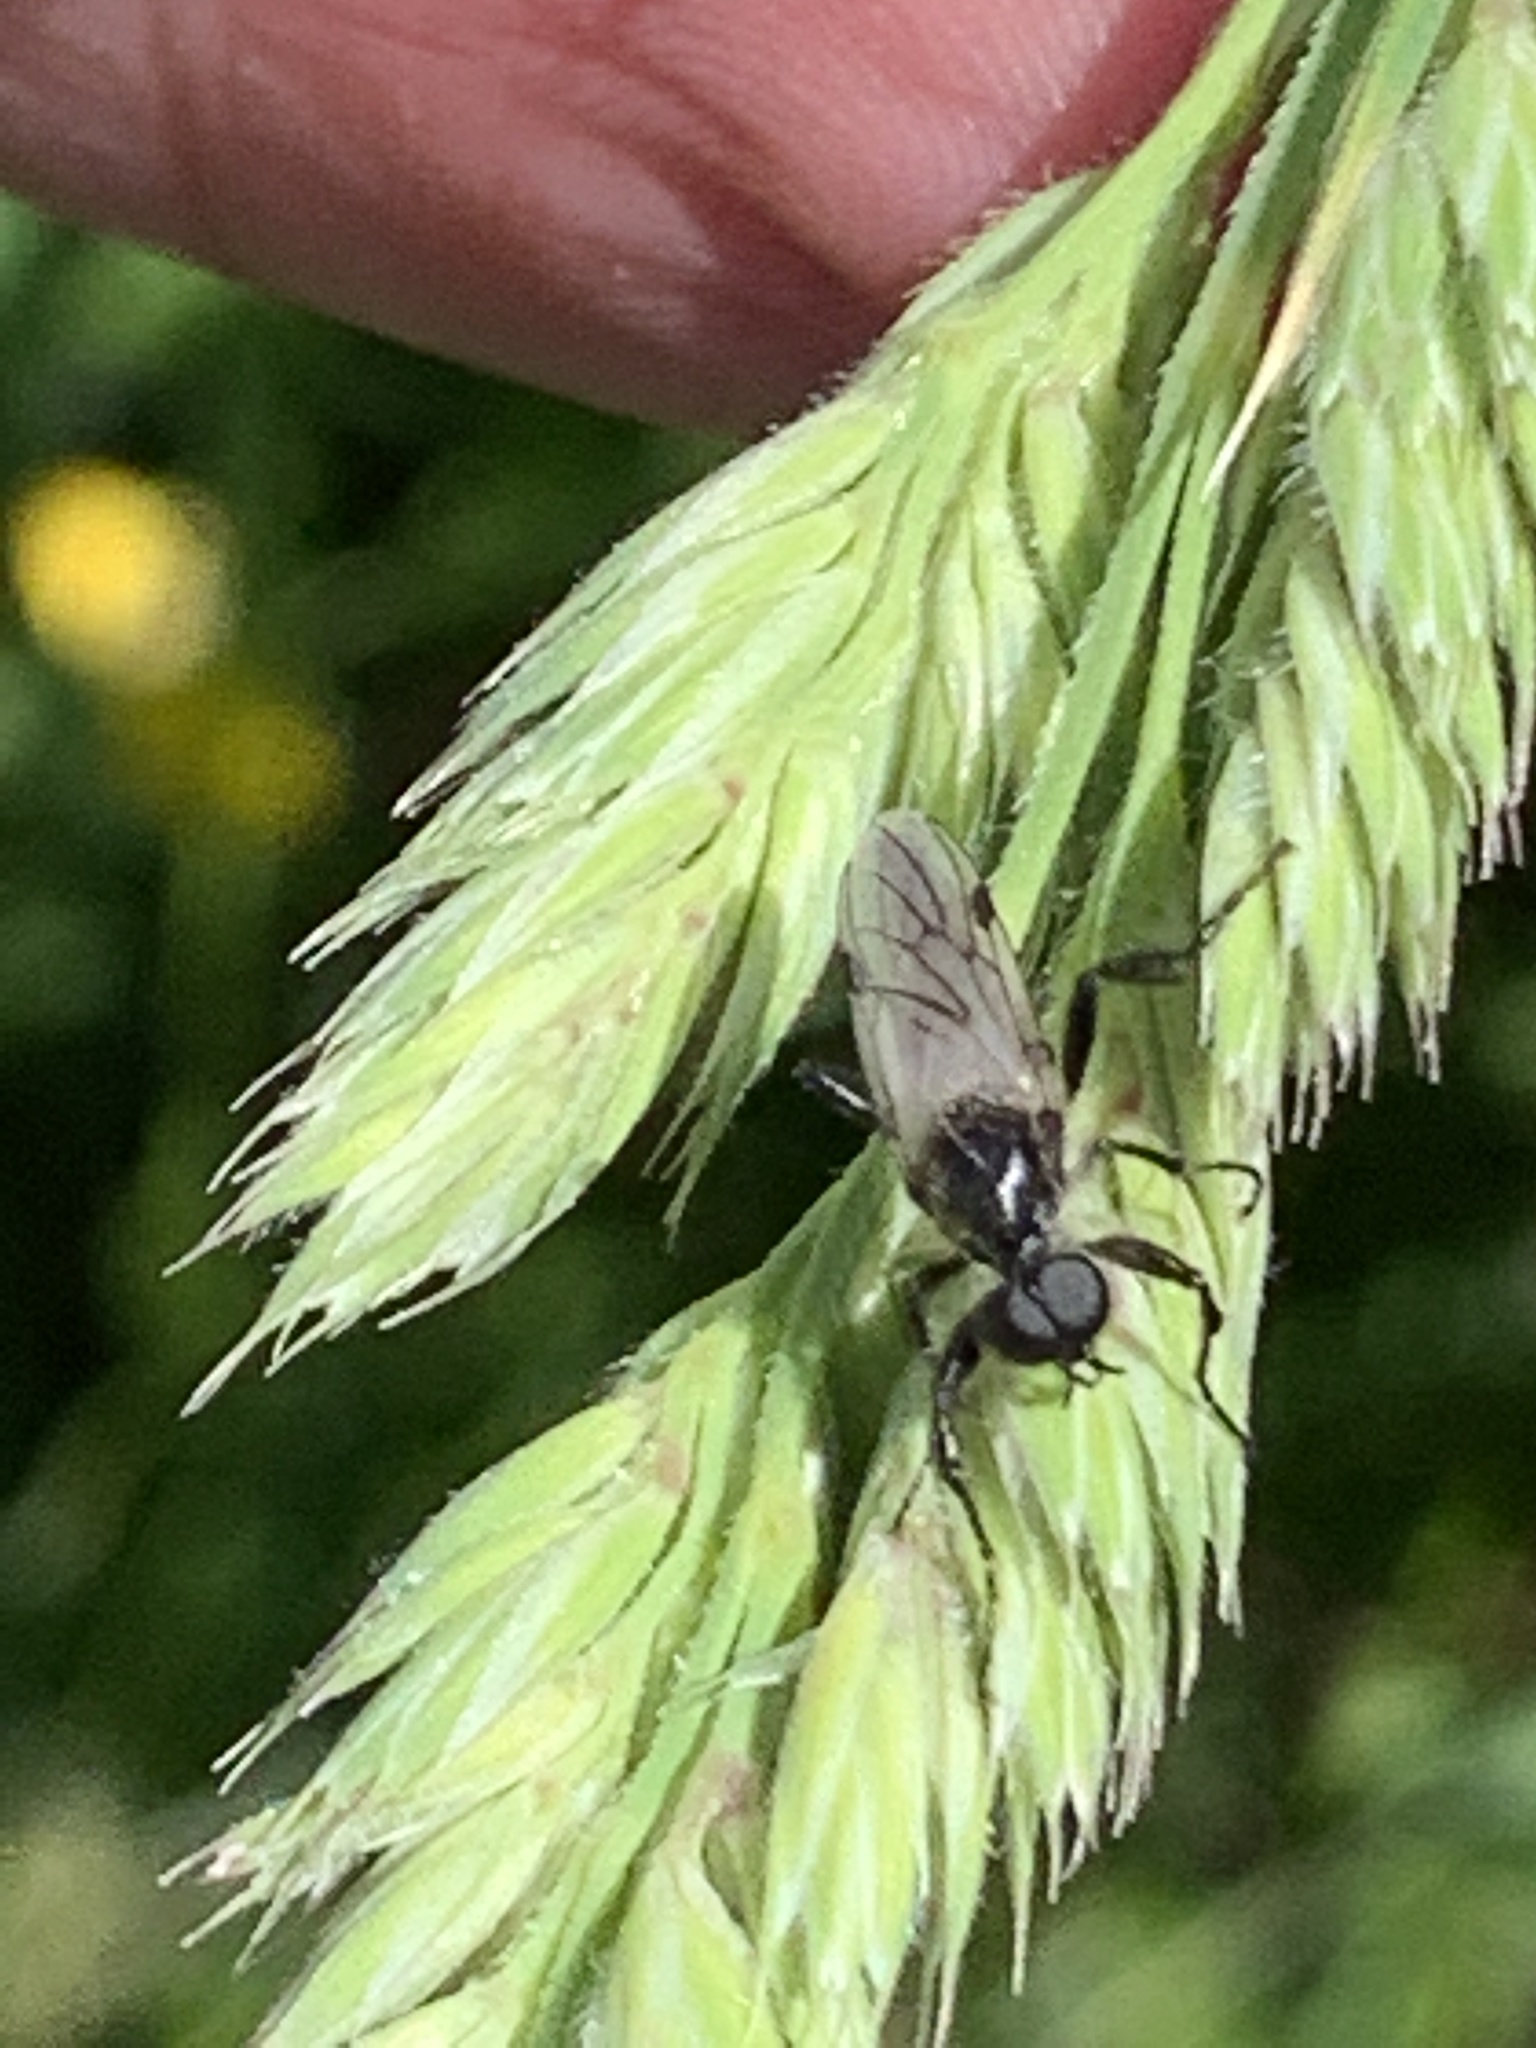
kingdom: Animalia
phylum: Arthropoda
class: Insecta
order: Diptera
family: Bibionidae
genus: Bibio
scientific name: Bibio albipennis
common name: White-winged march fly
